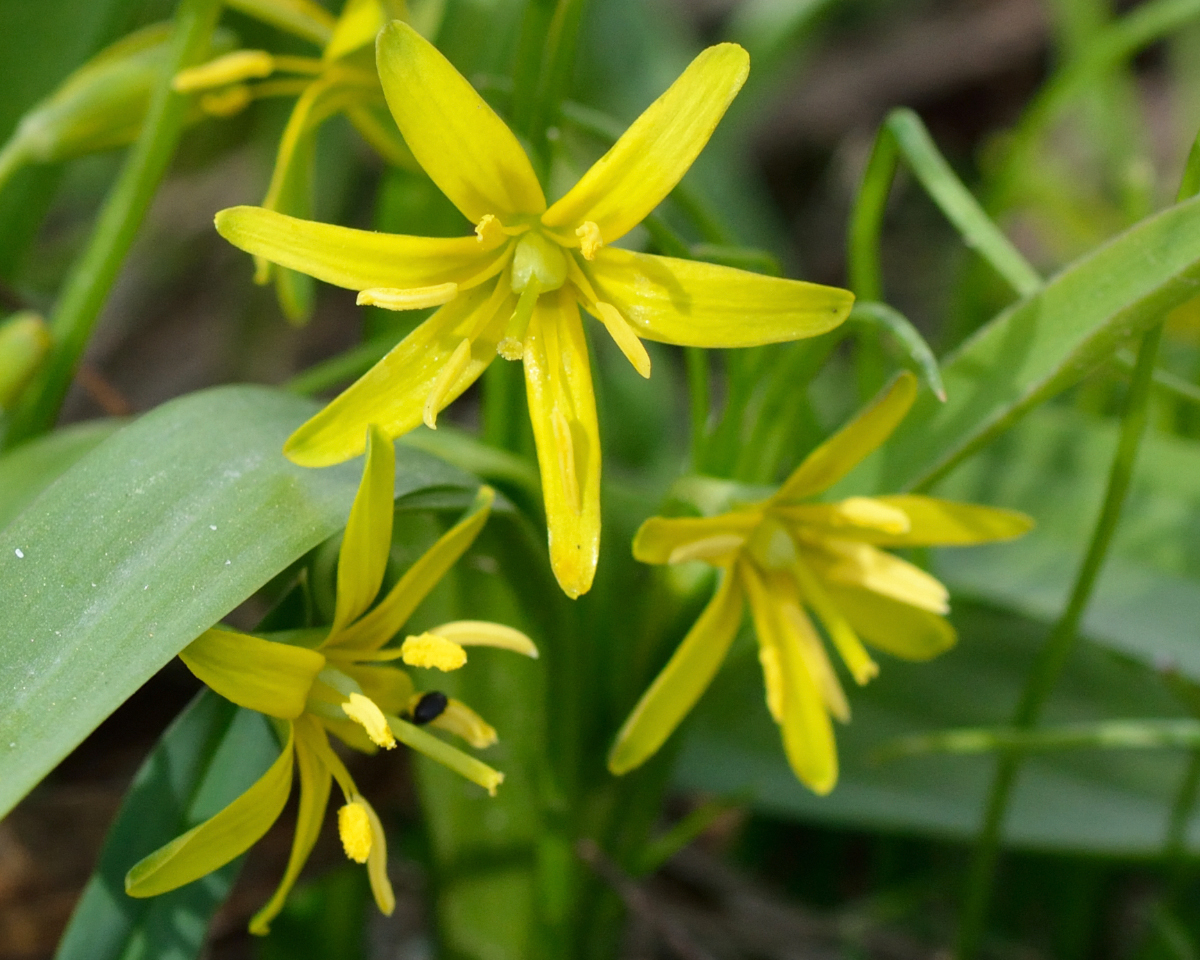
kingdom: Plantae
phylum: Tracheophyta
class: Liliopsida
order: Liliales
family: Liliaceae
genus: Gagea
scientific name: Gagea lutea
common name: Yellow star-of-bethlehem
